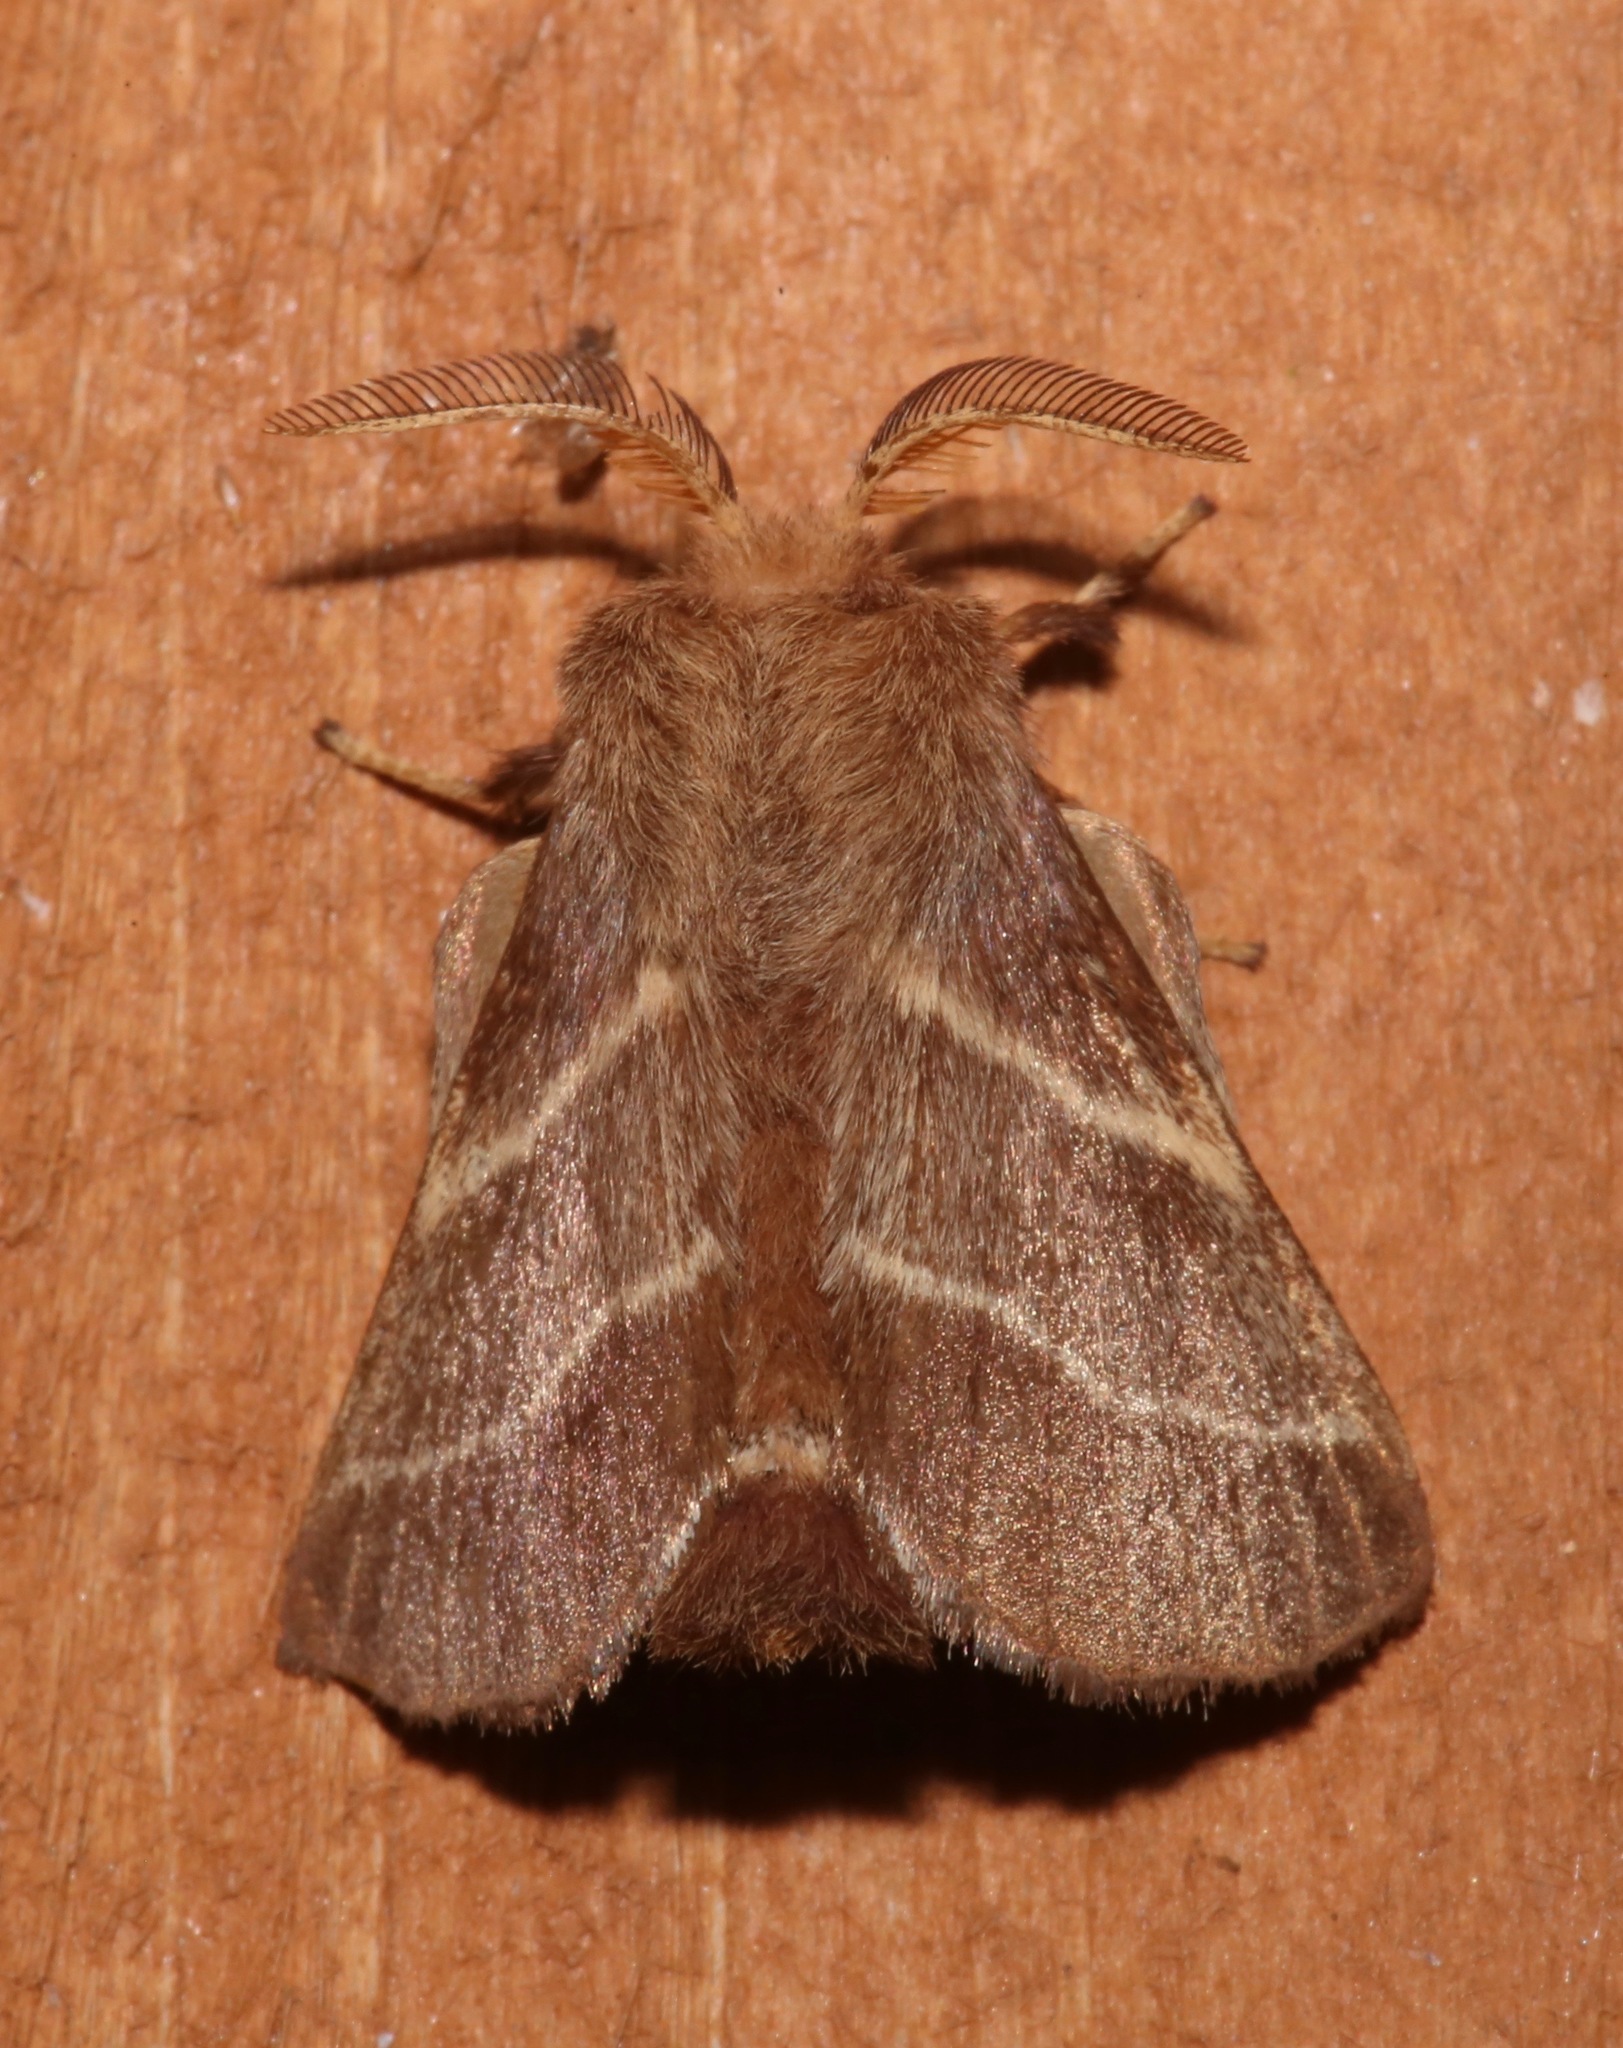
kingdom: Animalia
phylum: Arthropoda
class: Insecta
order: Lepidoptera
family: Lasiocampidae
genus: Malacosoma
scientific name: Malacosoma americana
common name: Eastern tent caterpillar moth
